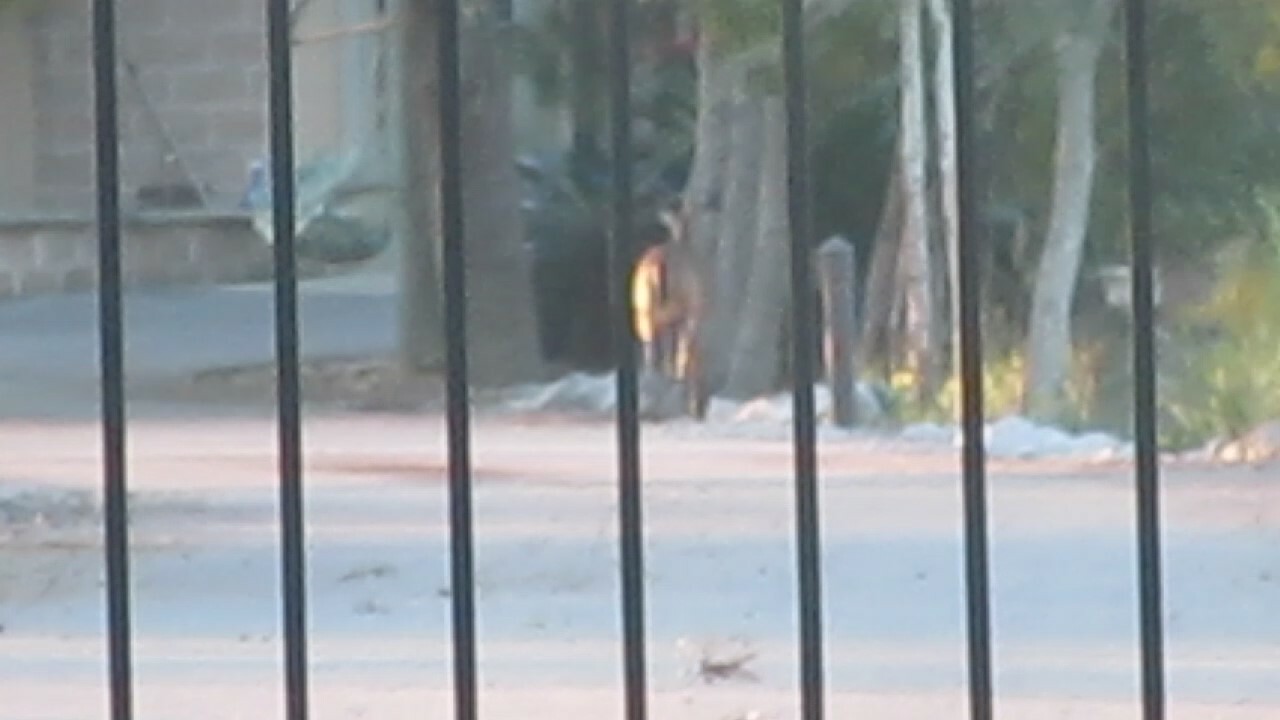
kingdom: Animalia
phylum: Chordata
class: Mammalia
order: Artiodactyla
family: Cervidae
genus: Odocoileus
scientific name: Odocoileus virginianus
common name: White-tailed deer
